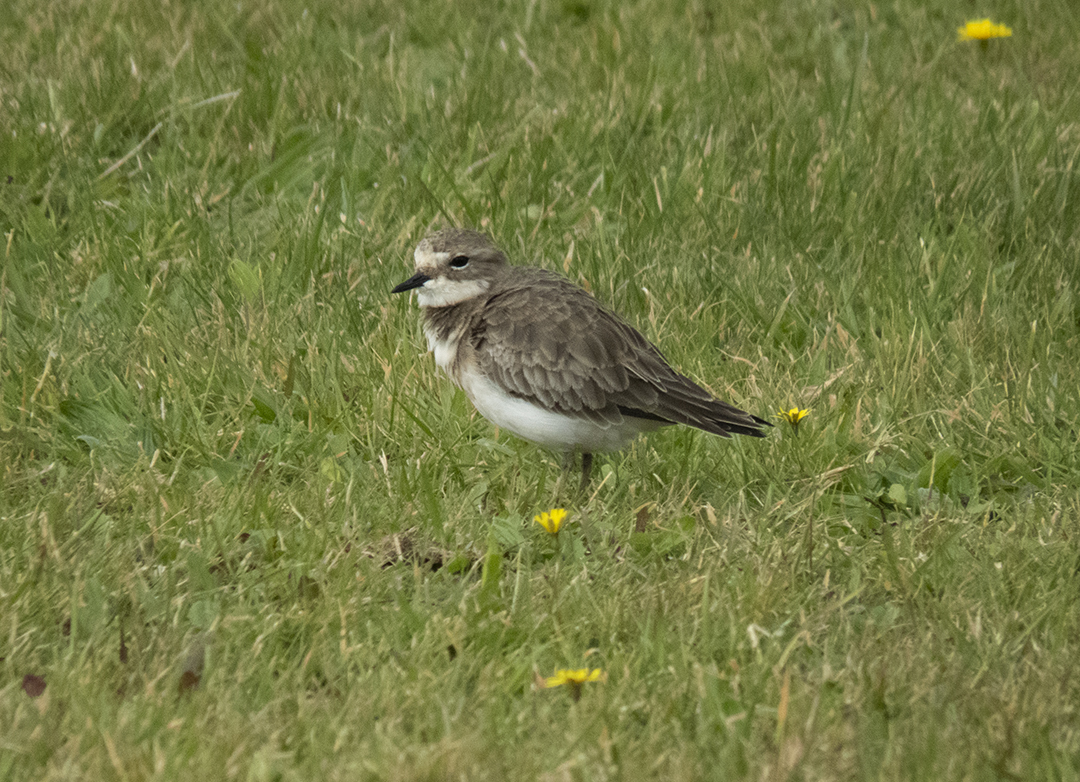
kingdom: Animalia
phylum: Chordata
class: Aves
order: Charadriiformes
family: Charadriidae
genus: Anarhynchus
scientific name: Anarhynchus
